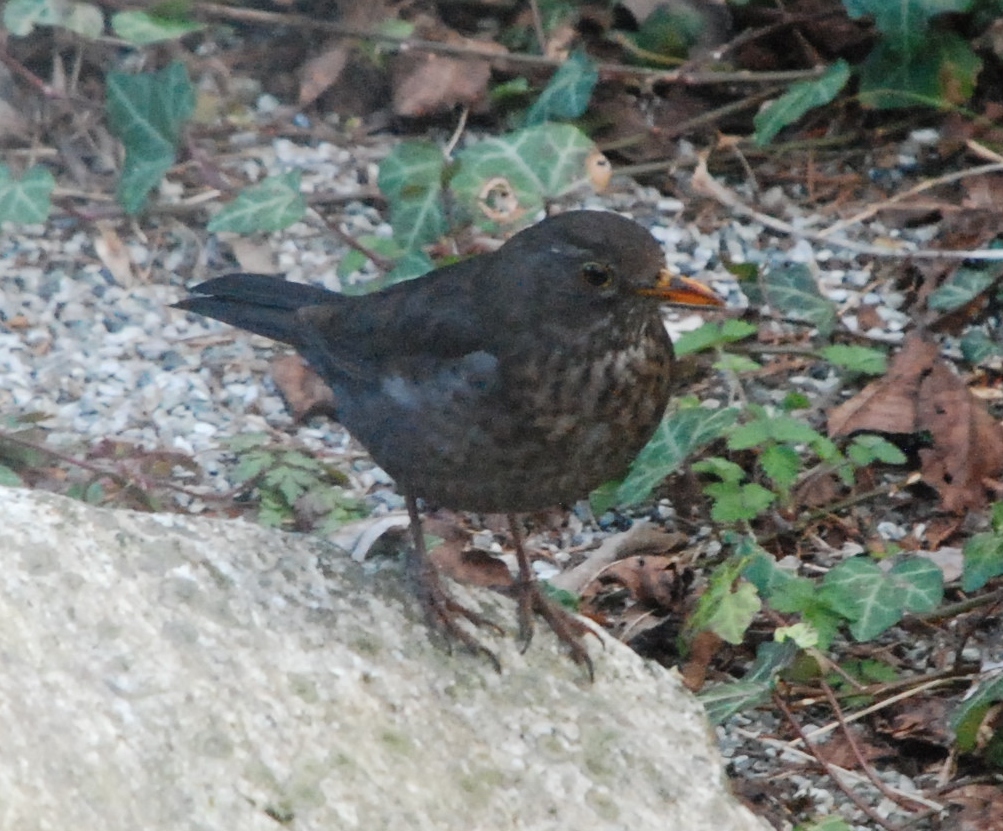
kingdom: Animalia
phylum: Chordata
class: Aves
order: Passeriformes
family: Turdidae
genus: Turdus
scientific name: Turdus merula
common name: Common blackbird
